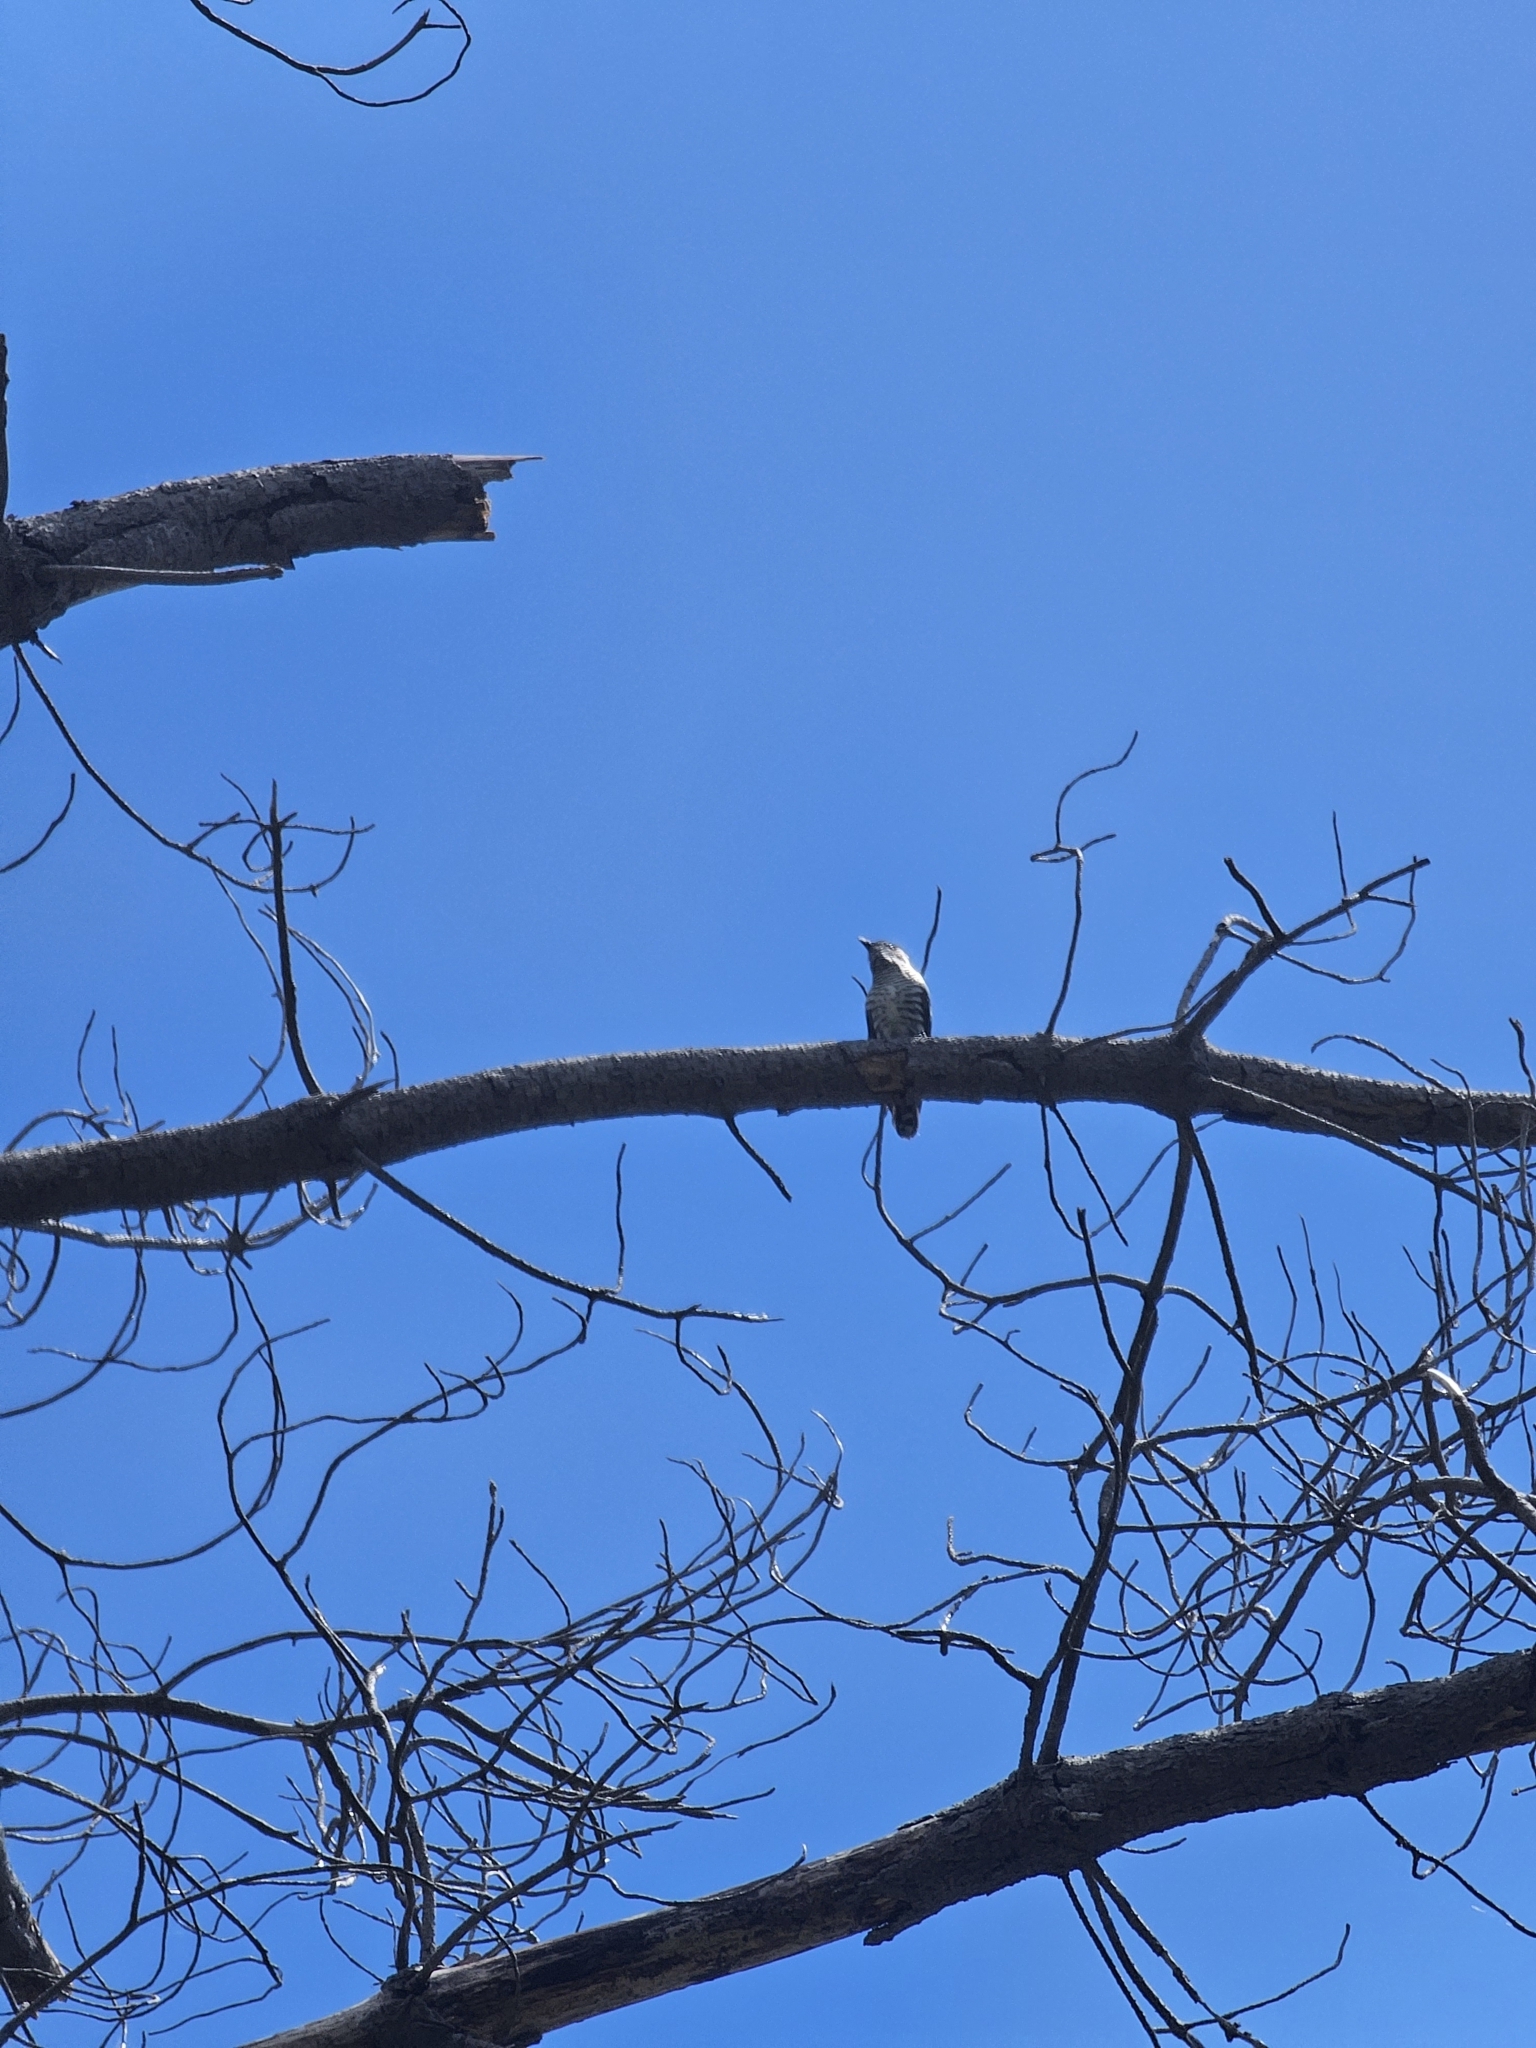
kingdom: Animalia
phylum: Chordata
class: Aves
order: Cuculiformes
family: Cuculidae
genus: Chrysococcyx
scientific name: Chrysococcyx lucidus
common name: Shining bronze cuckoo
